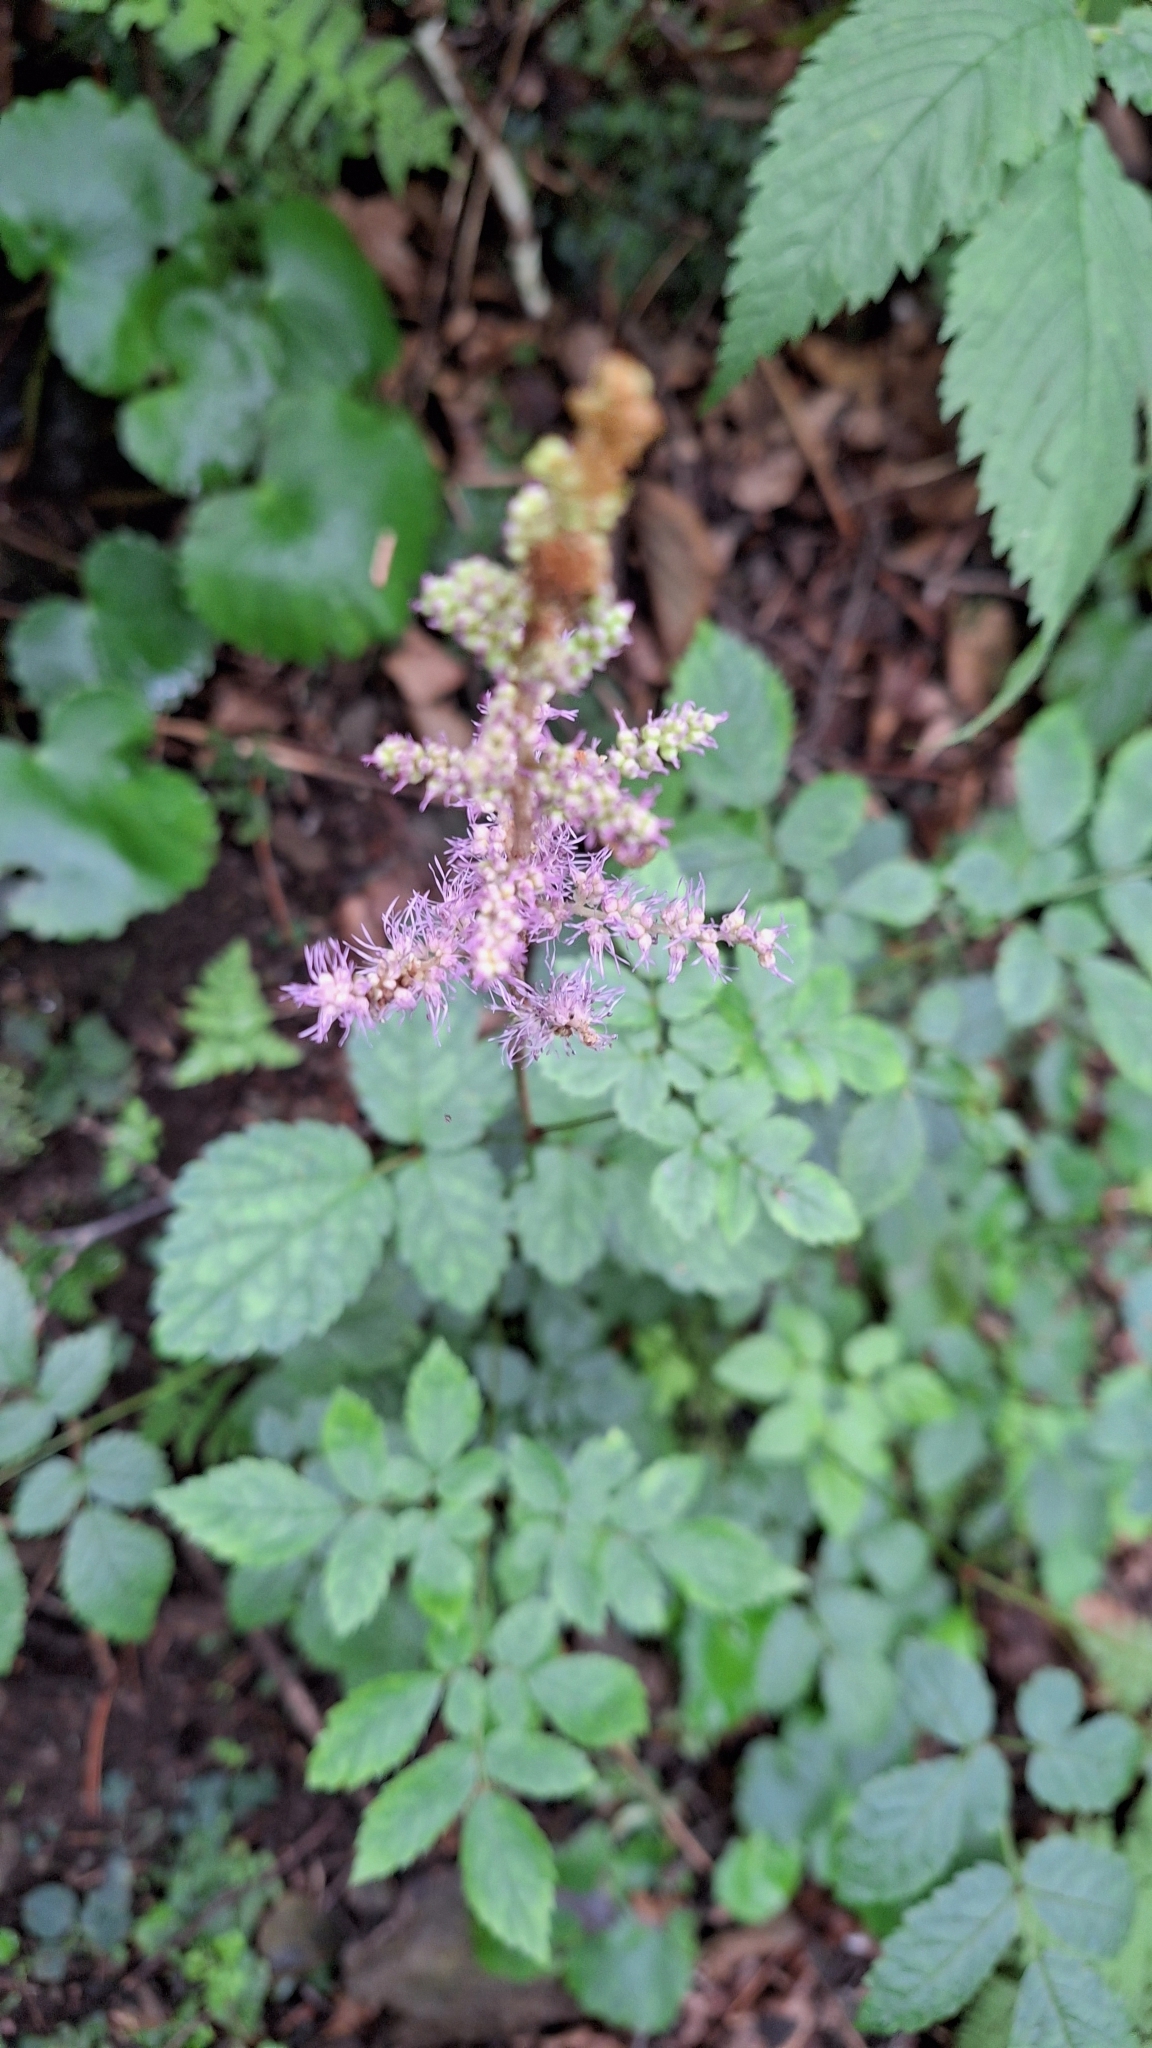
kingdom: Plantae
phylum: Tracheophyta
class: Magnoliopsida
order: Saxifragales
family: Saxifragaceae
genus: Astilbe
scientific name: Astilbe rubra
